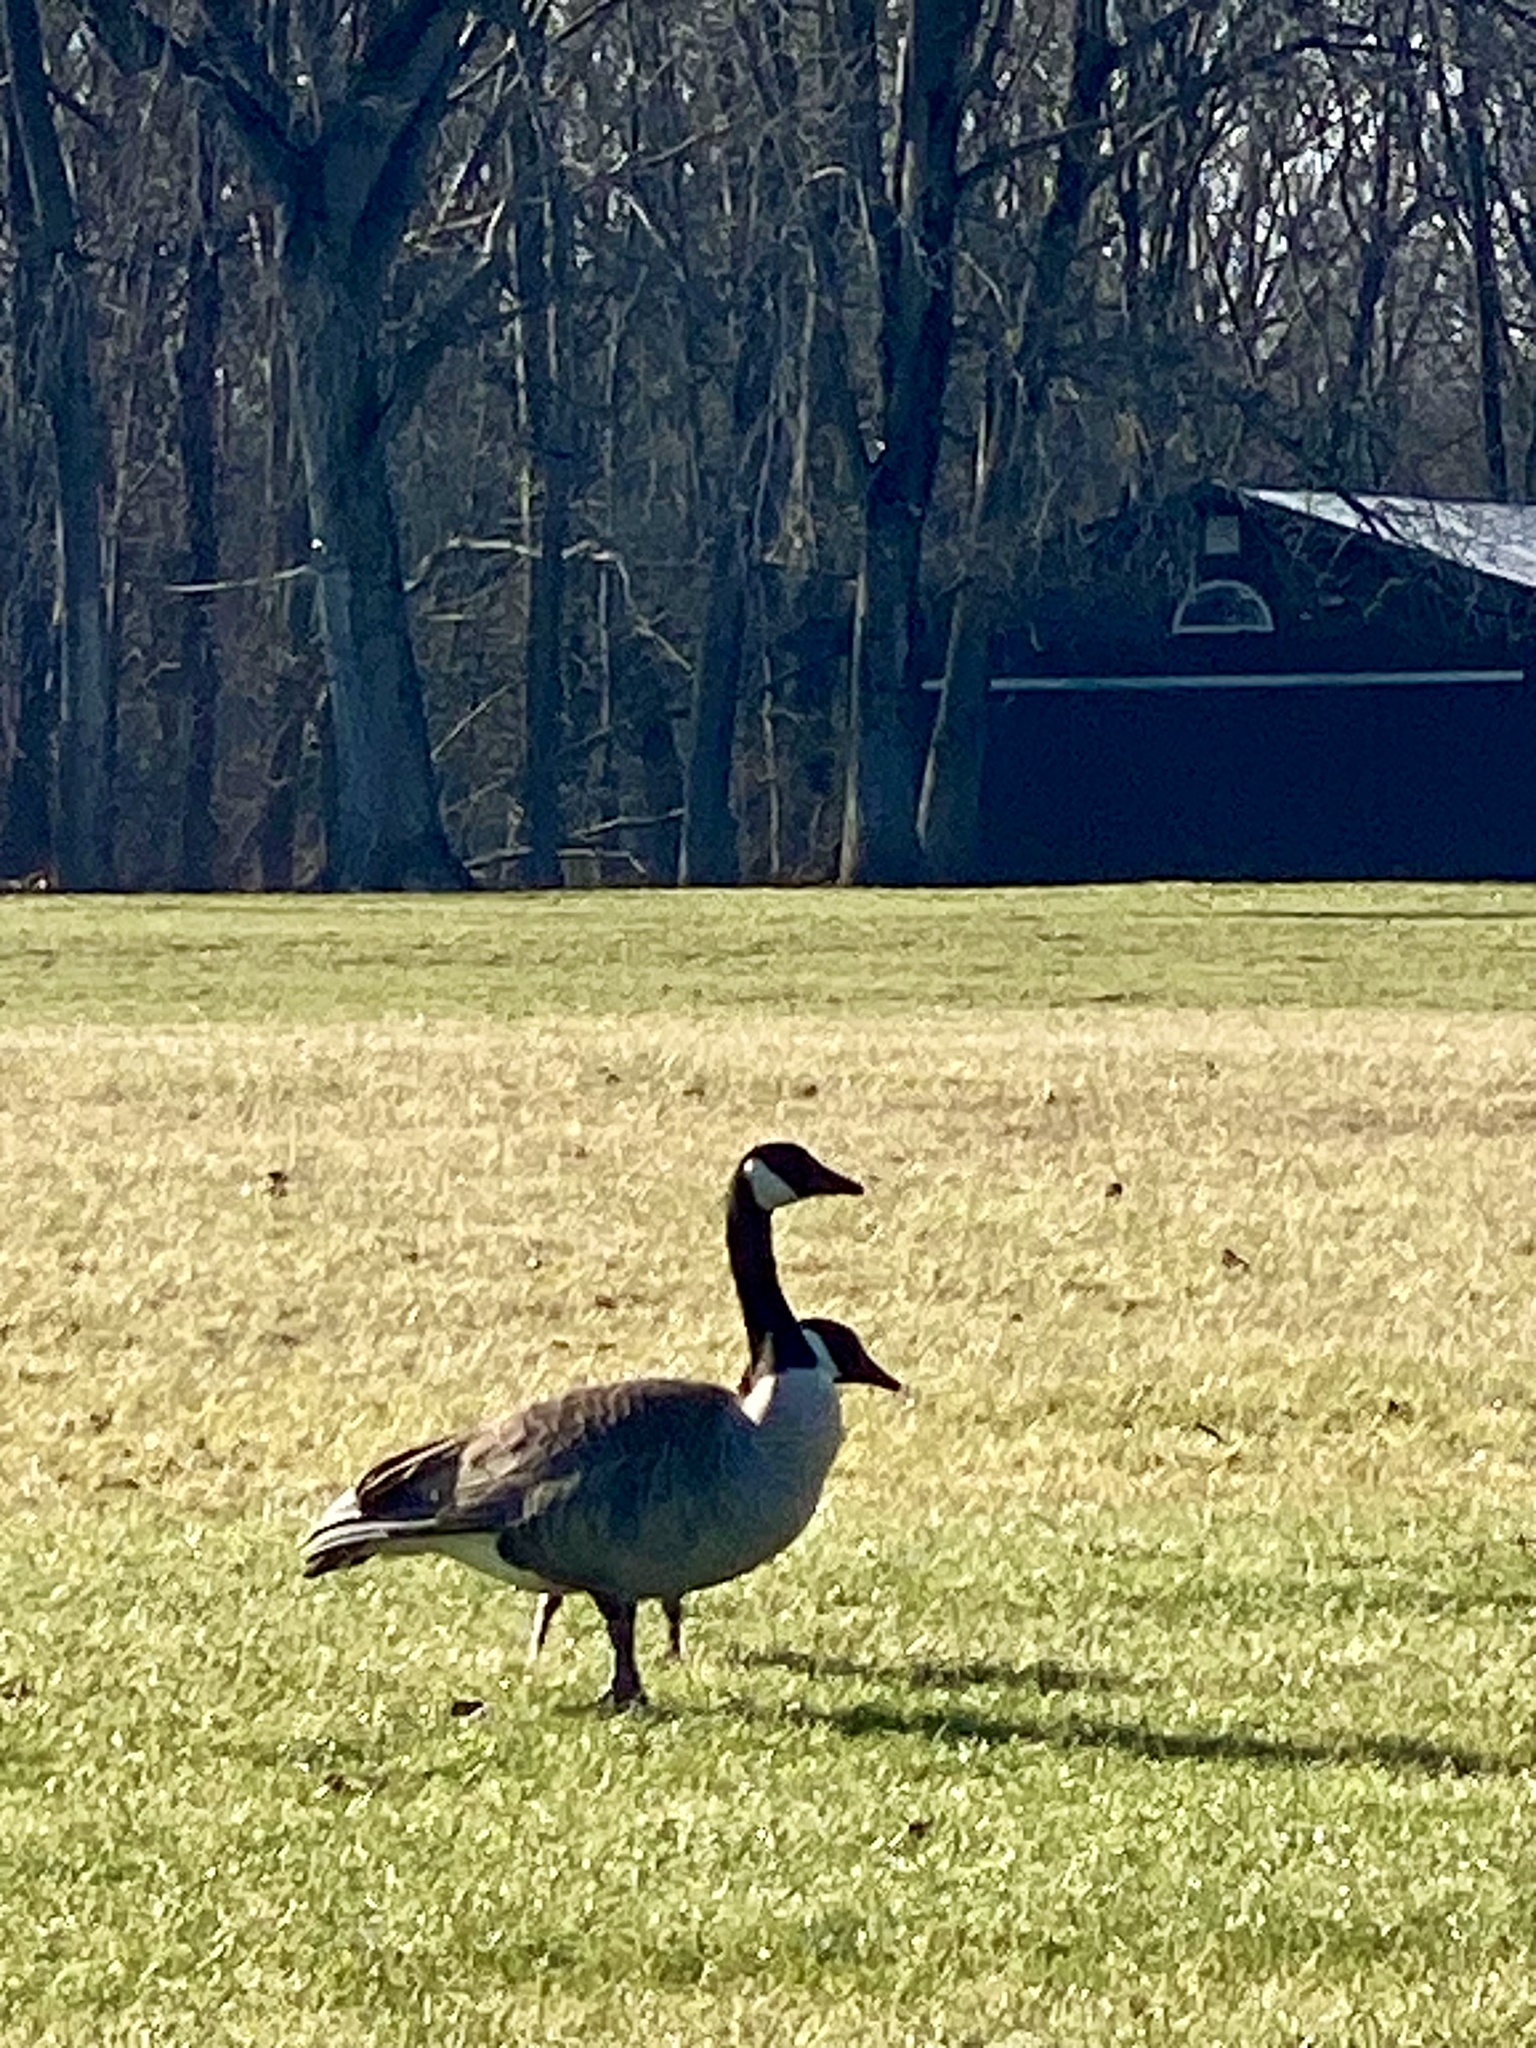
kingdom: Animalia
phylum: Chordata
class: Aves
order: Anseriformes
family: Anatidae
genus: Branta
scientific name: Branta canadensis
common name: Canada goose
